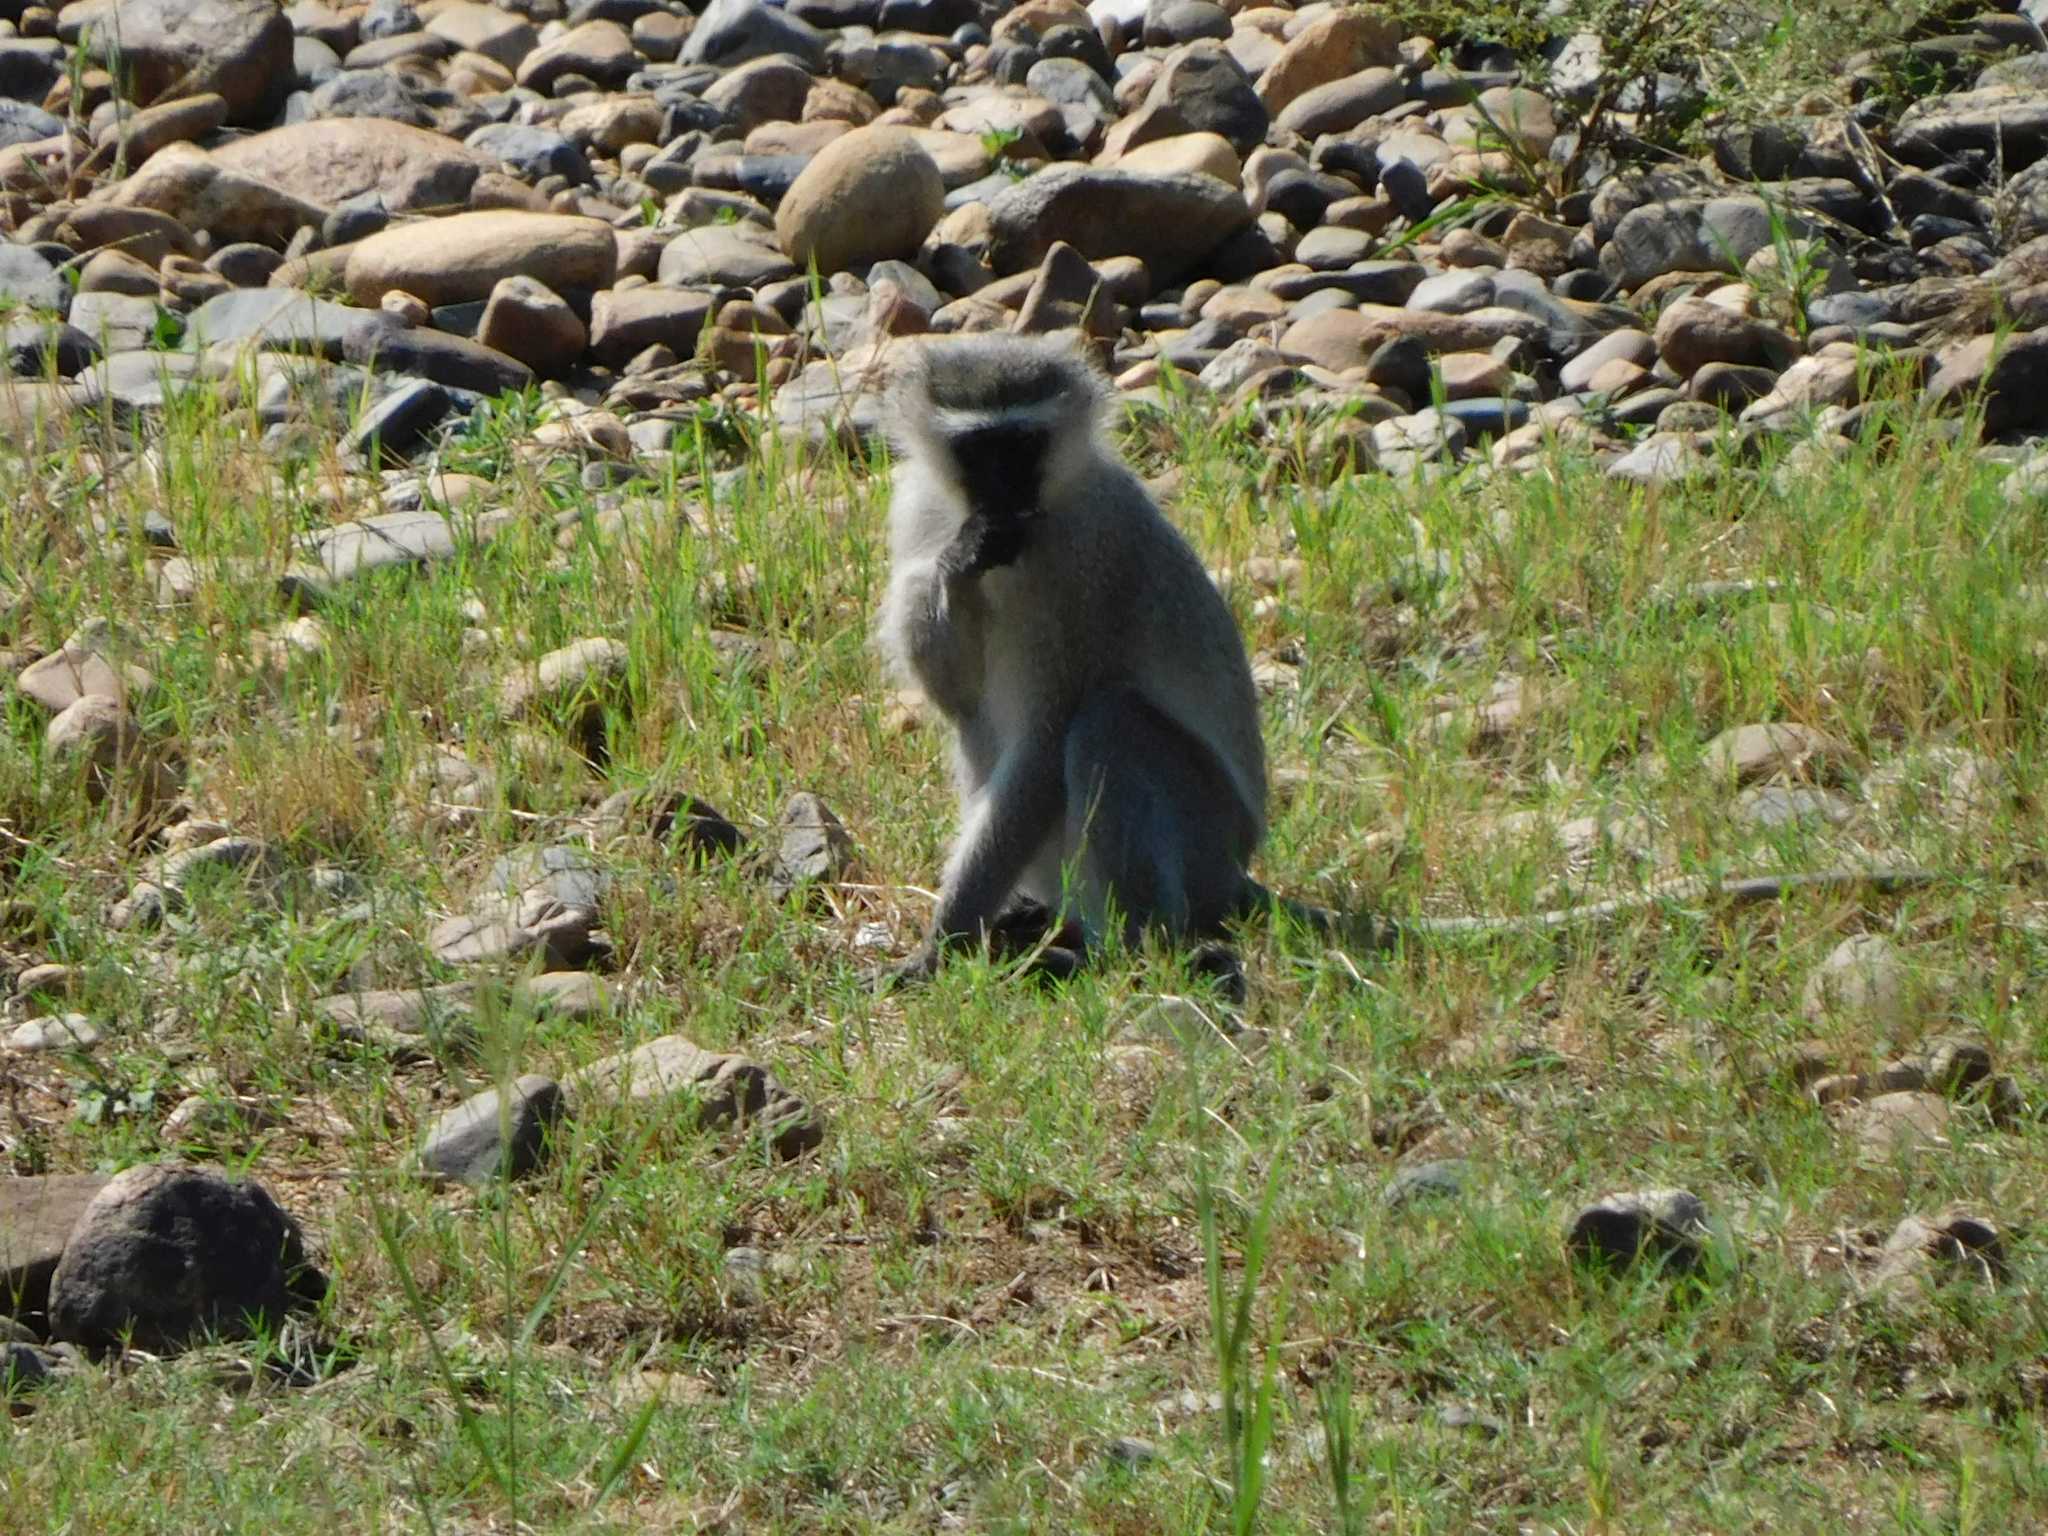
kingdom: Animalia
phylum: Chordata
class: Mammalia
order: Primates
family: Cercopithecidae
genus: Chlorocebus
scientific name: Chlorocebus pygerythrus
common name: Vervet monkey
